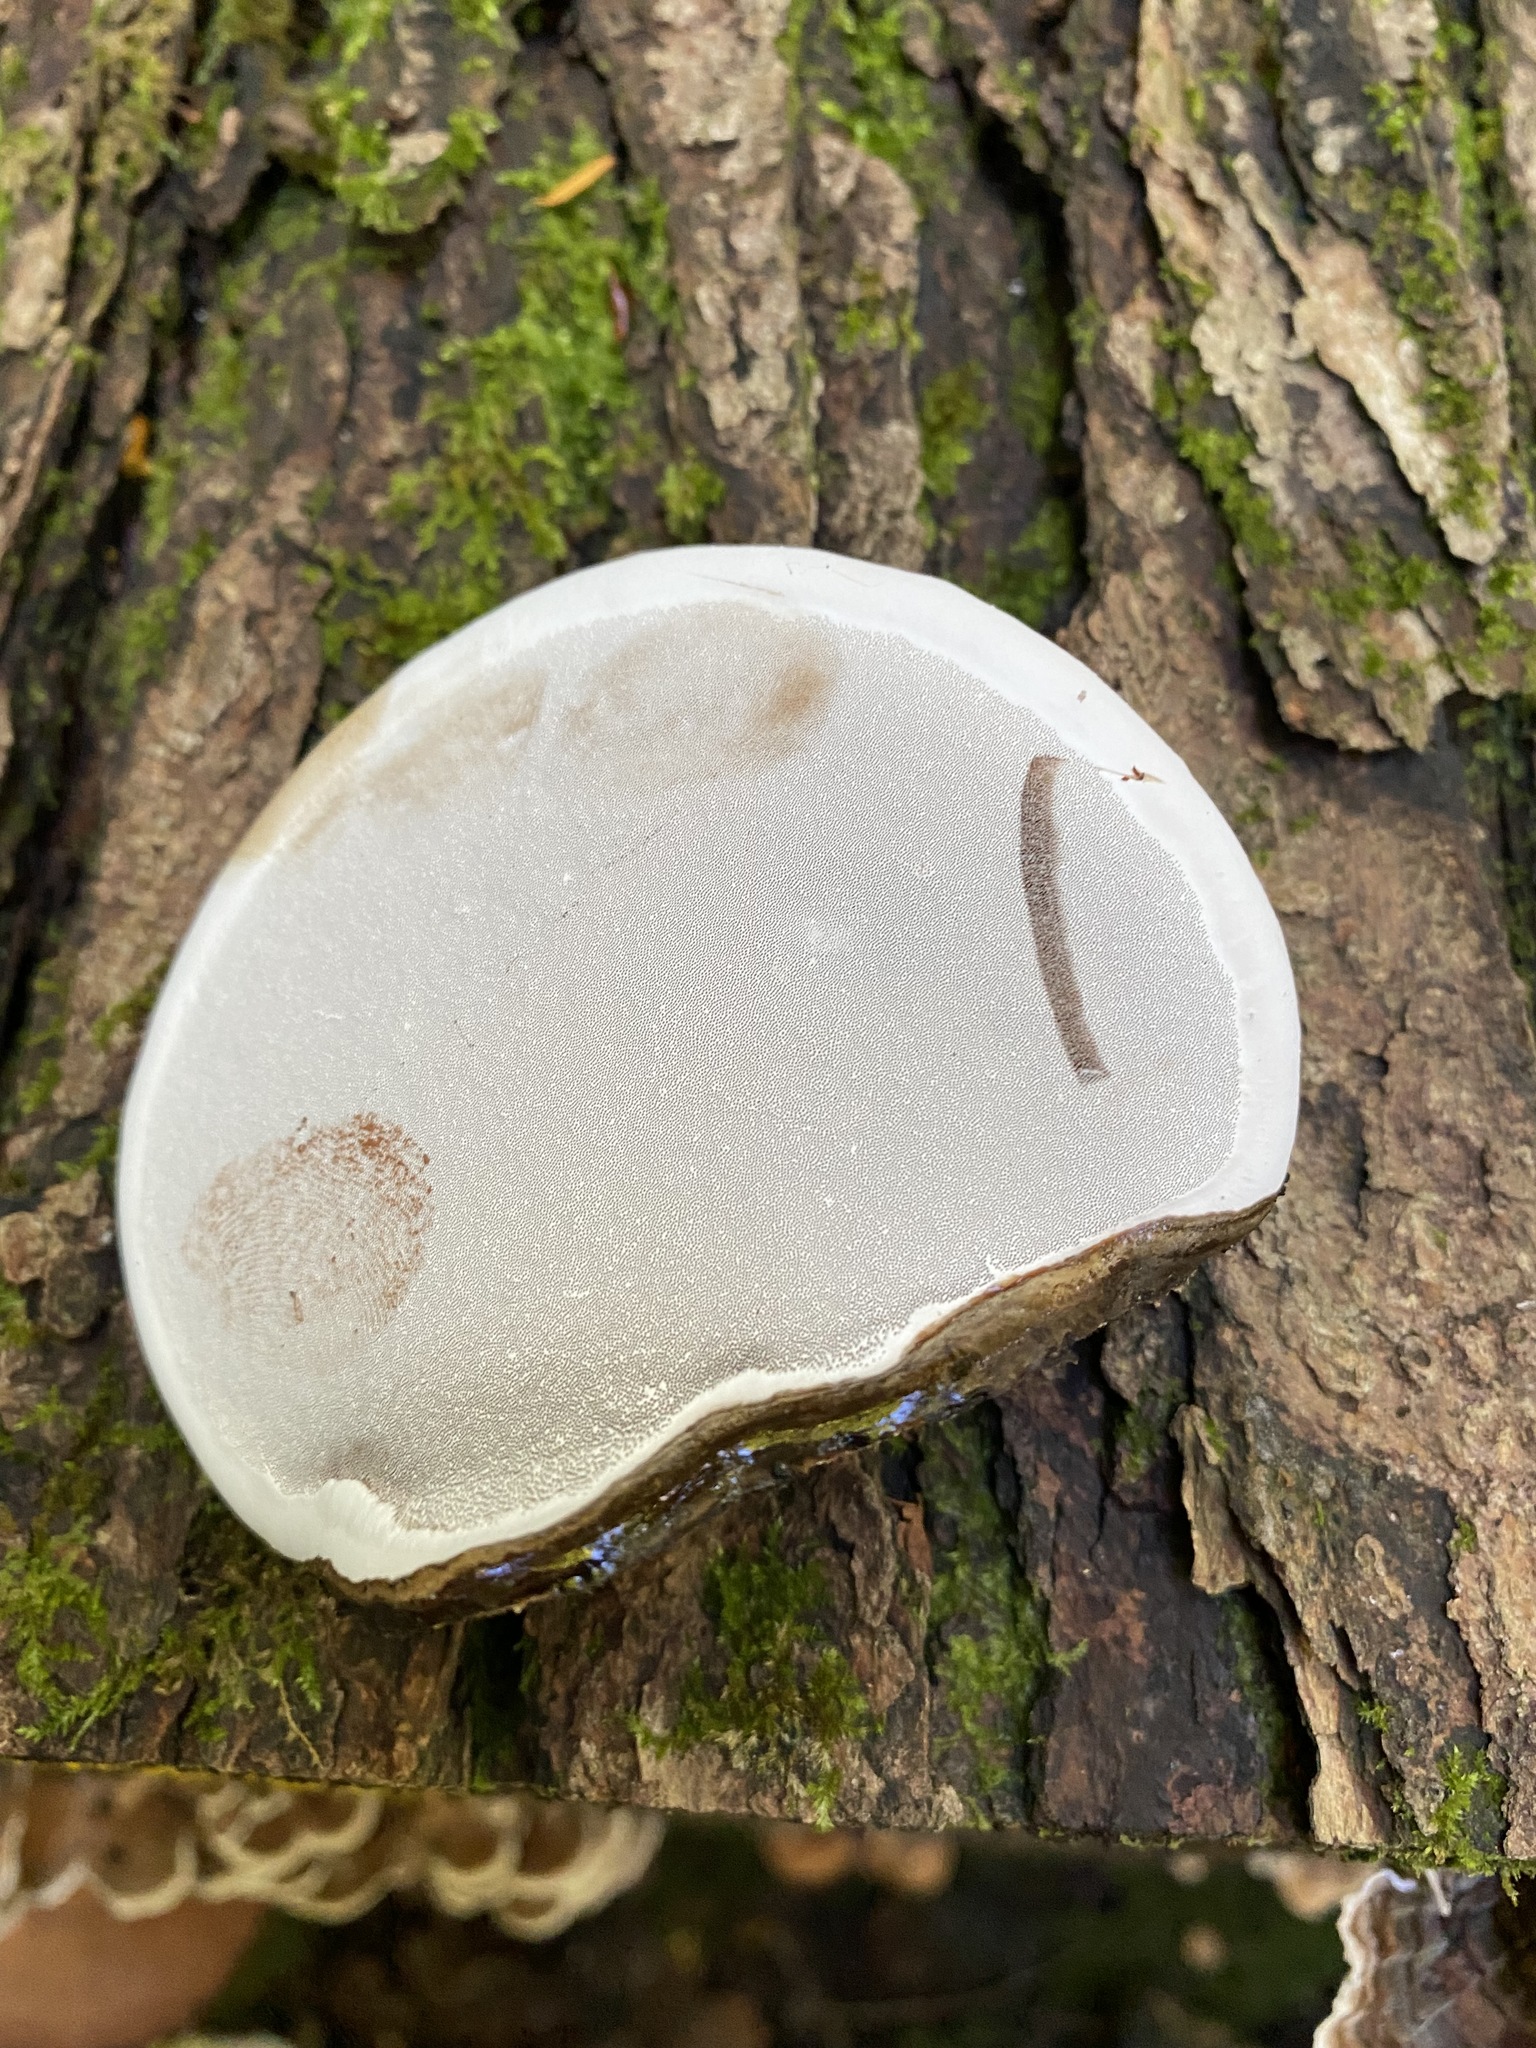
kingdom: Fungi
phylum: Basidiomycota
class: Agaricomycetes
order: Polyporales
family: Polyporaceae
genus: Ganoderma
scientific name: Ganoderma applanatum
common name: Artist's bracket
